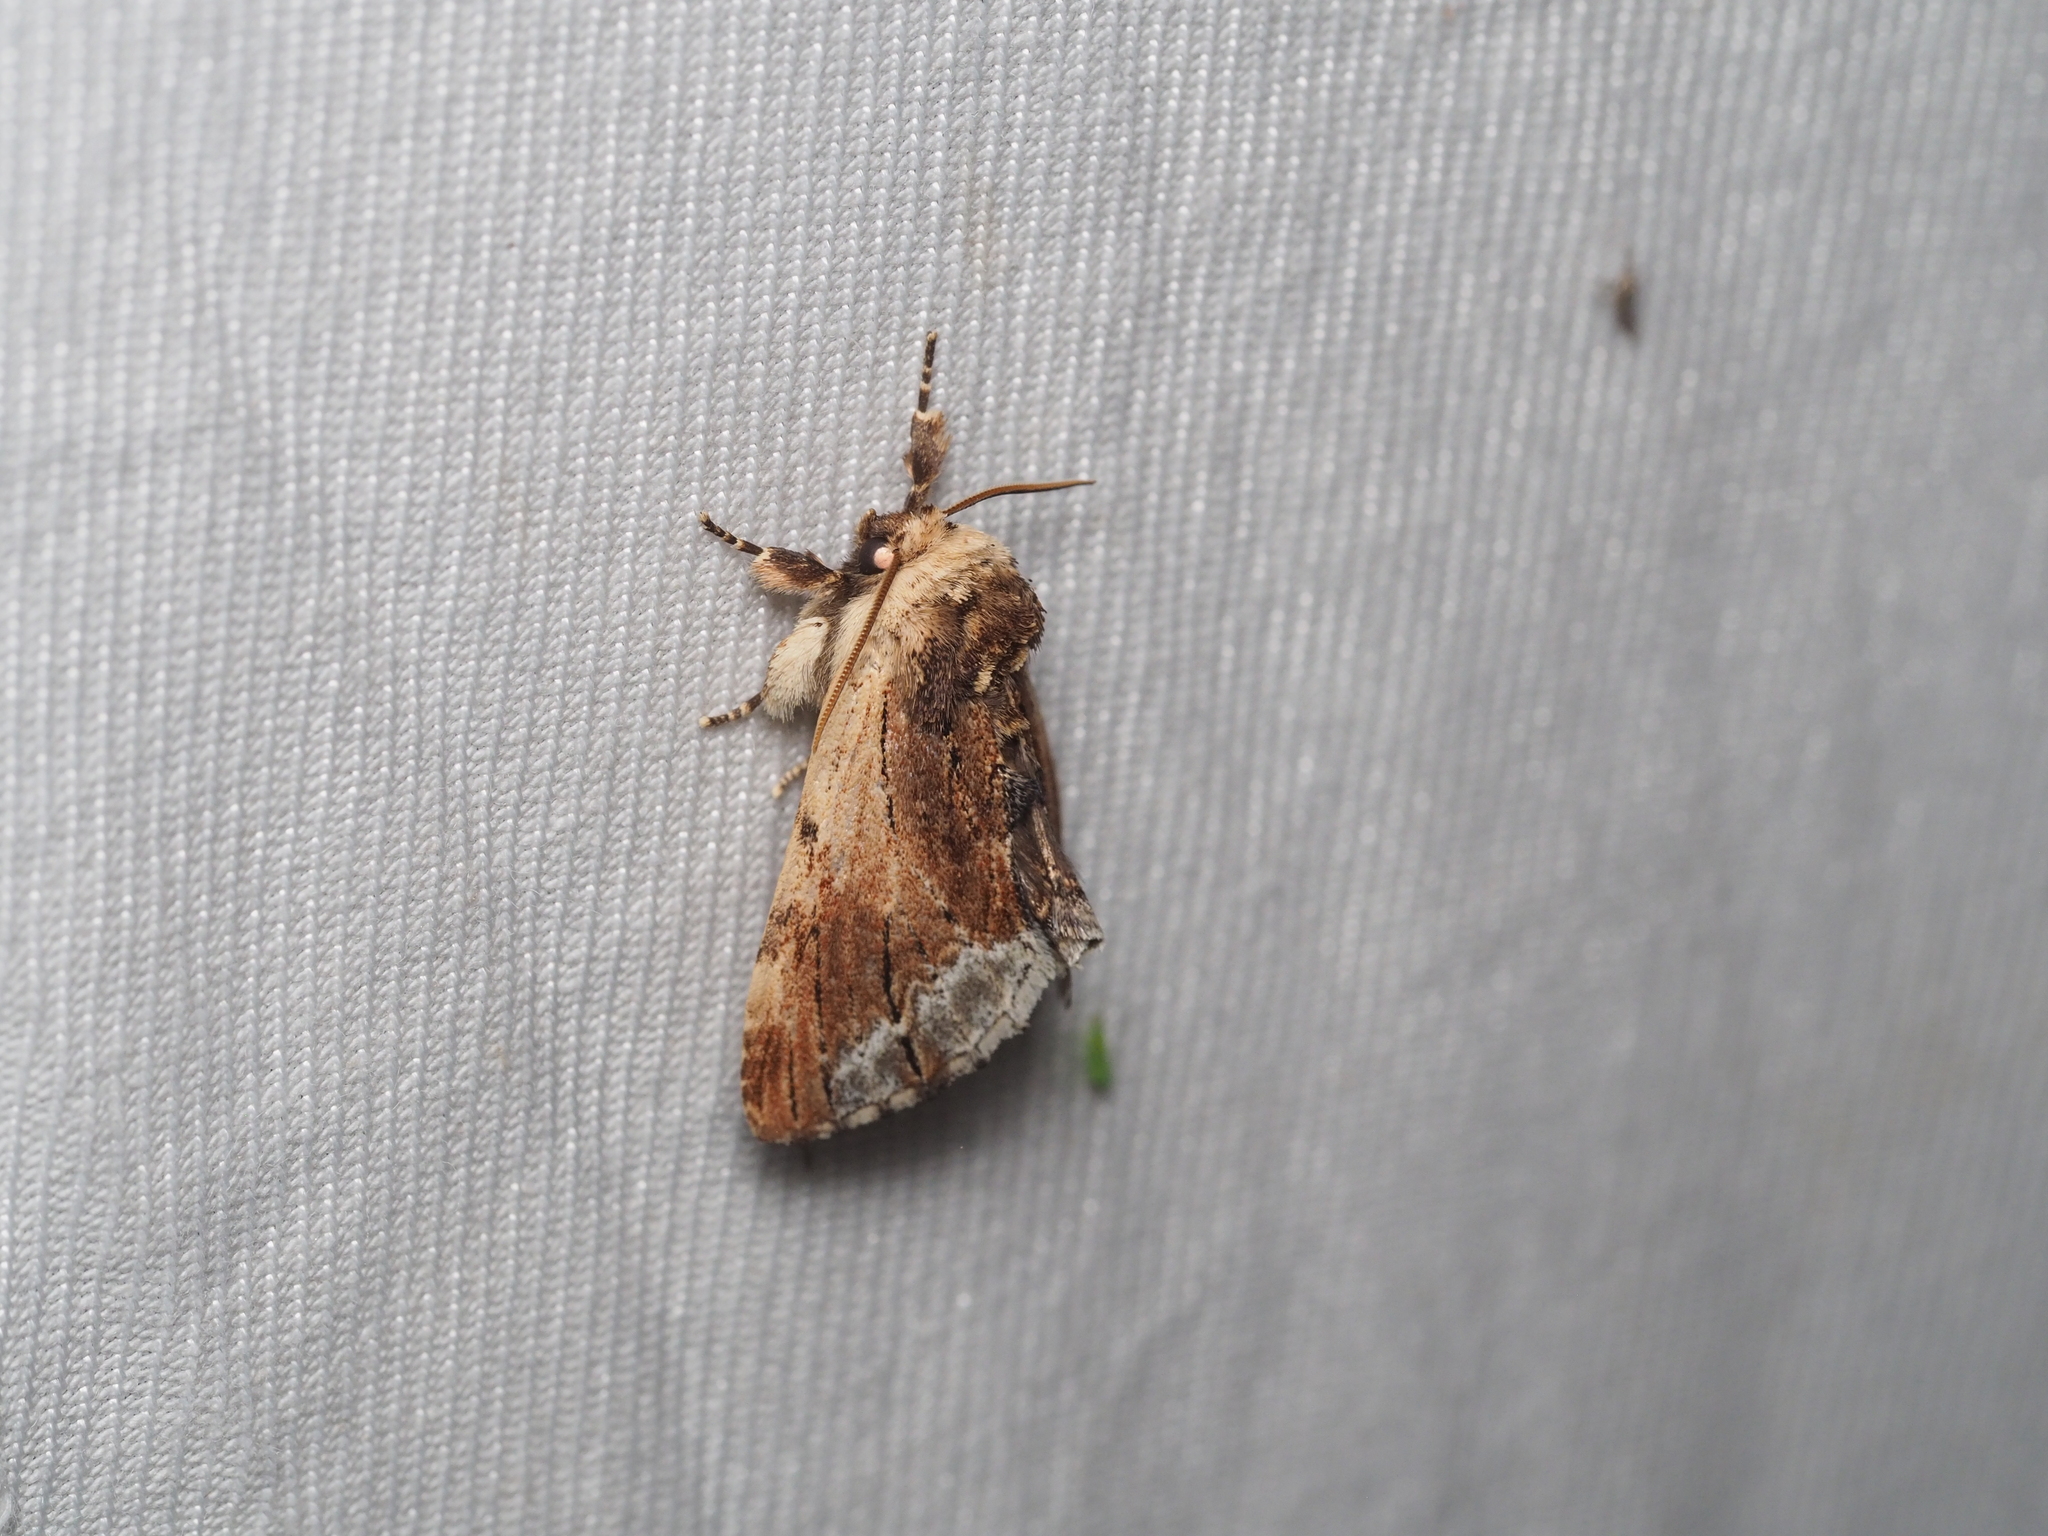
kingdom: Animalia
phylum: Arthropoda
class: Insecta
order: Lepidoptera
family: Notodontidae
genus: Ptilodon
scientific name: Ptilodon cucullina
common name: Maple prominent
